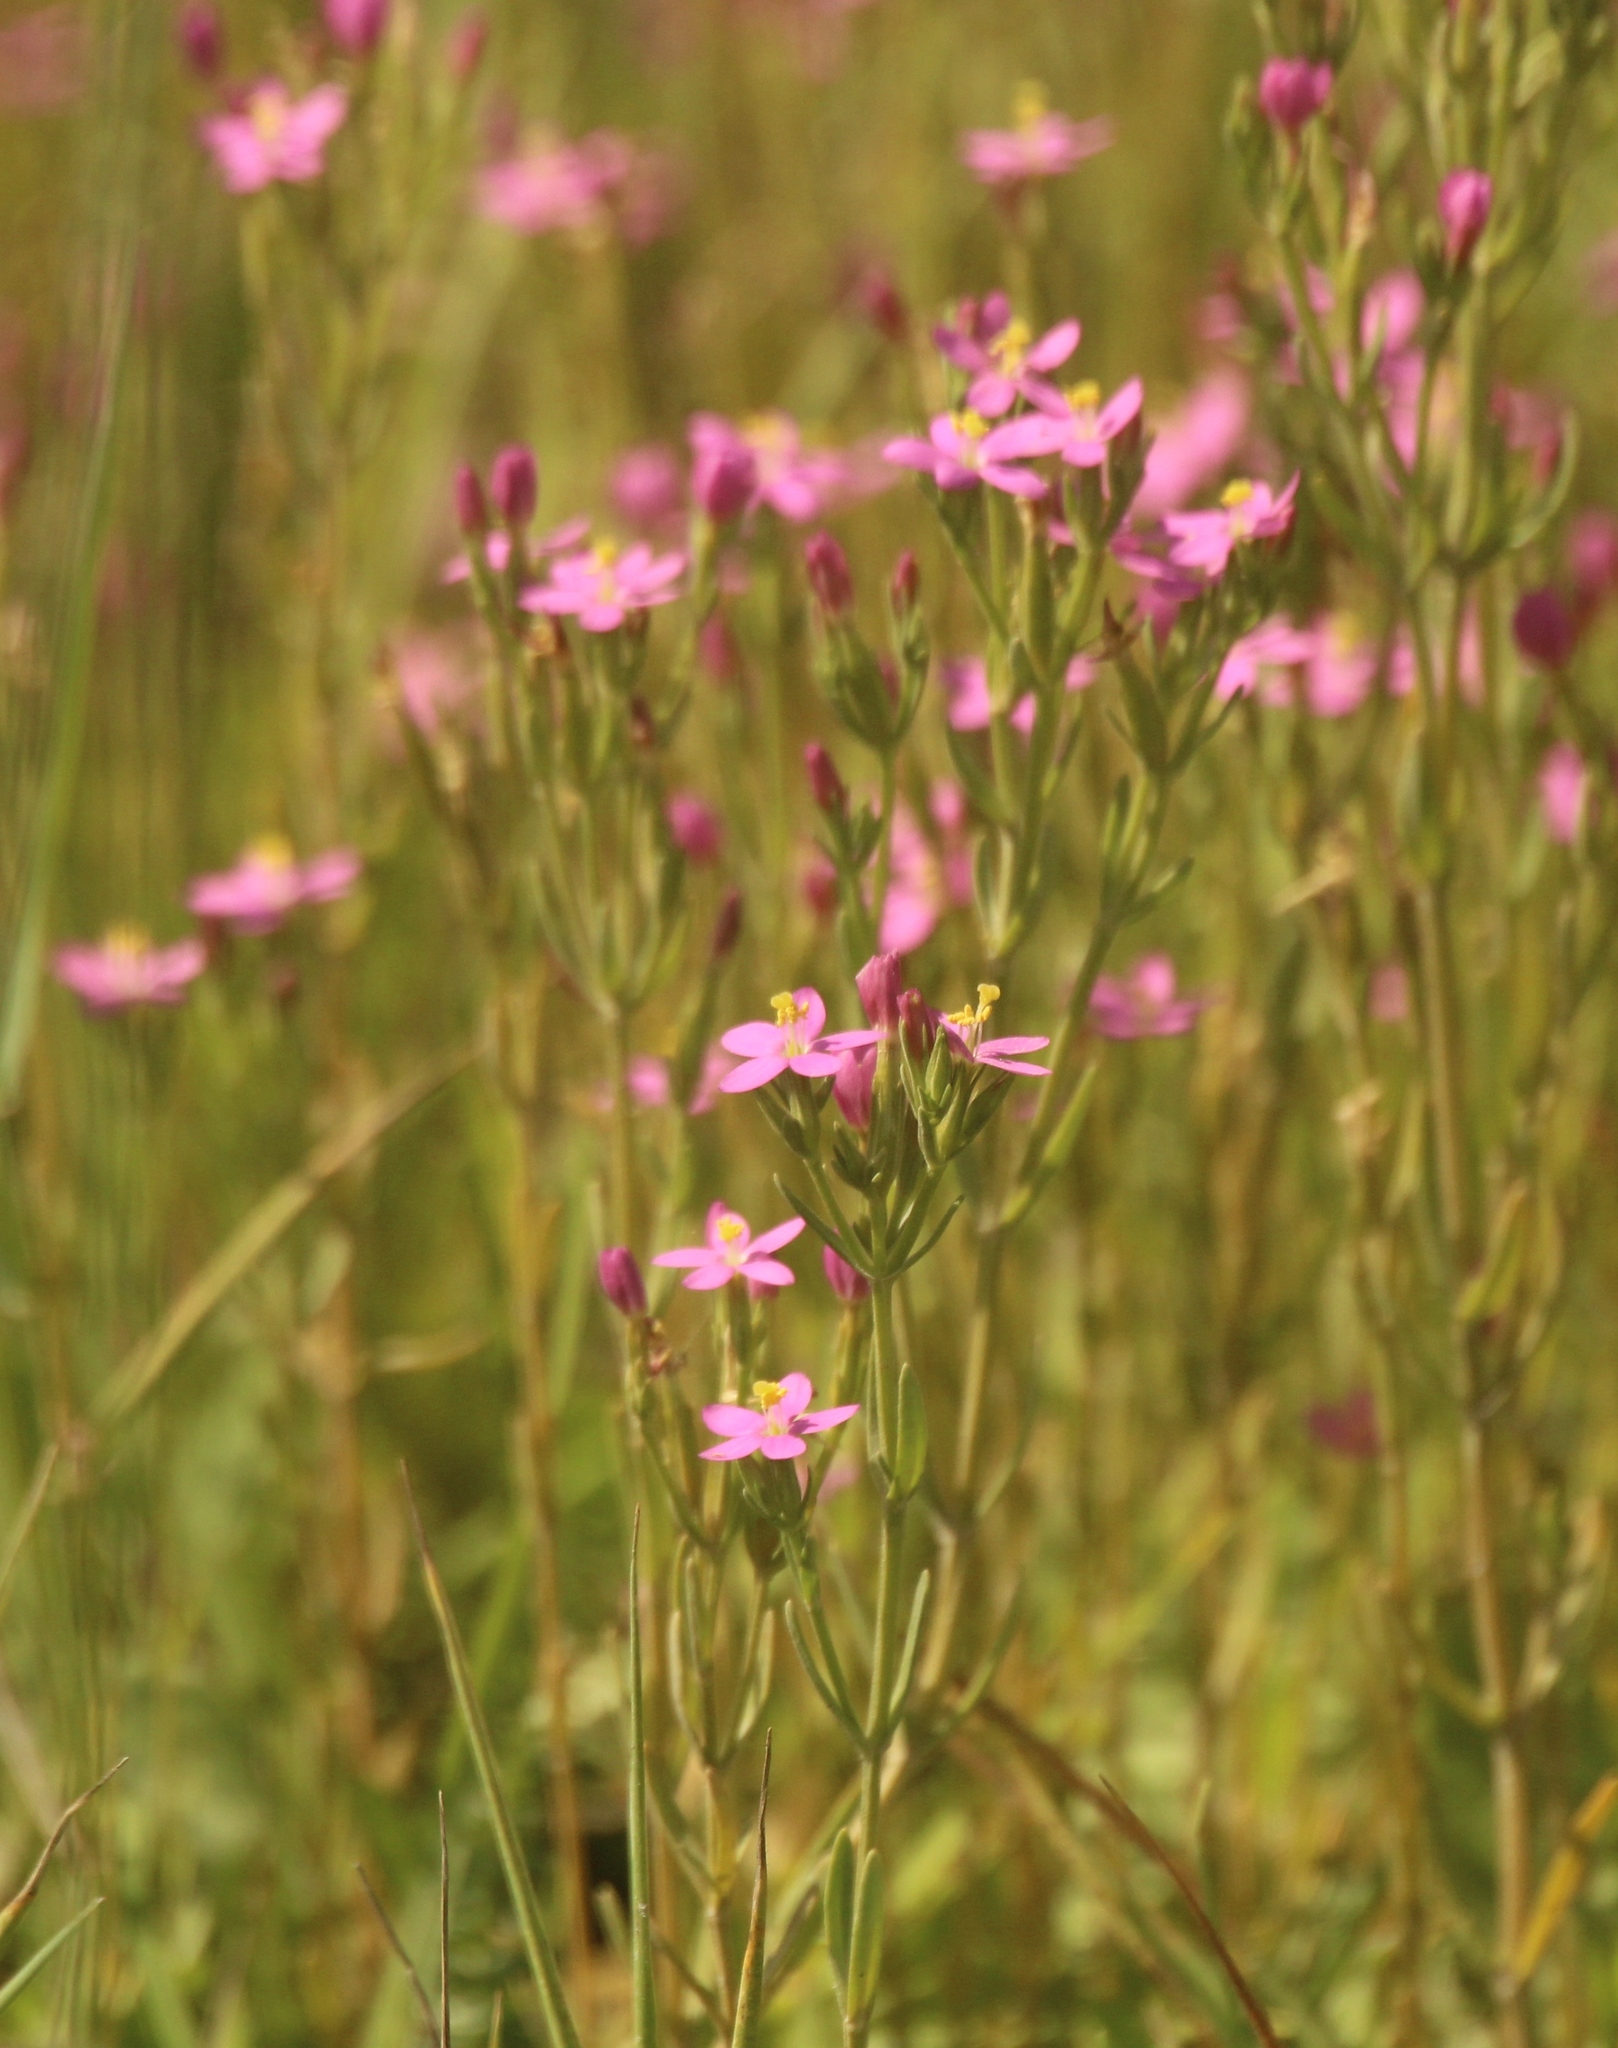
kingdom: Plantae
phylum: Tracheophyta
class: Magnoliopsida
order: Gentianales
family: Gentianaceae
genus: Centaurium
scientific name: Centaurium pulchellum
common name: Lesser centaury
